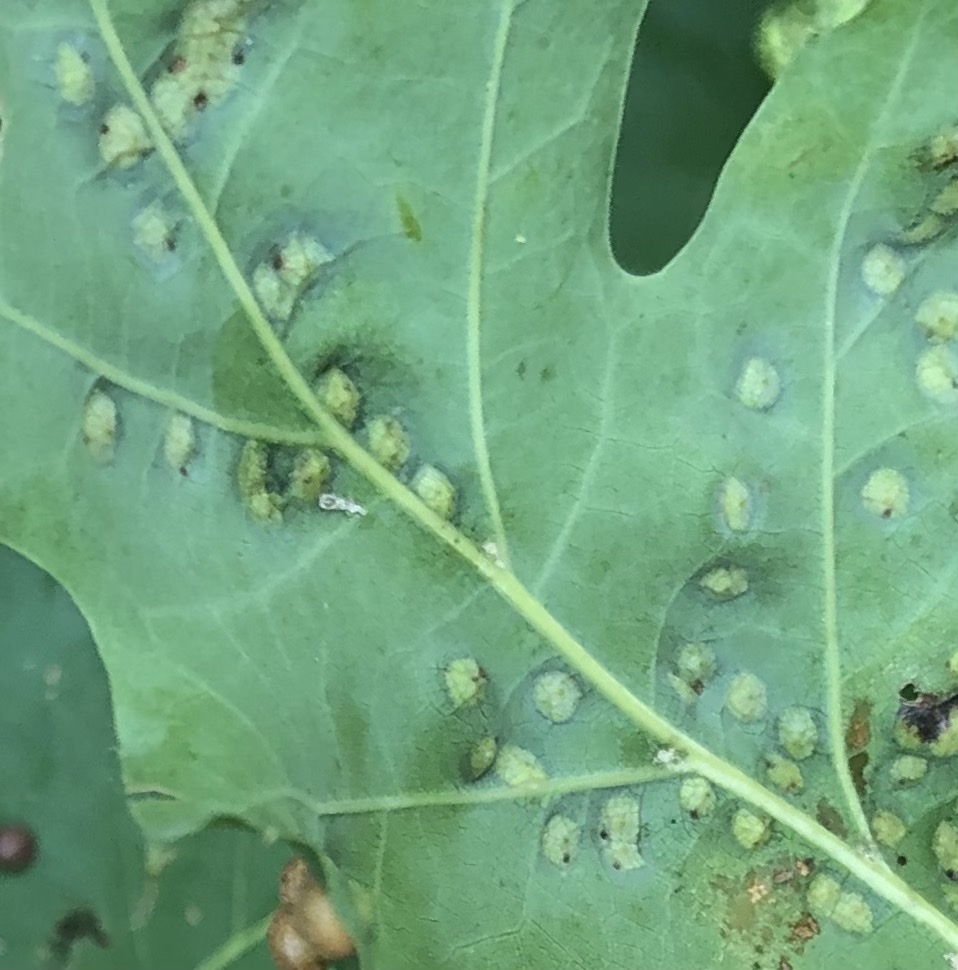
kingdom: Animalia
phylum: Arthropoda
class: Insecta
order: Diptera
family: Cecidomyiidae
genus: Polystepha
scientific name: Polystepha pilulae
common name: Oak leaf gall midge
